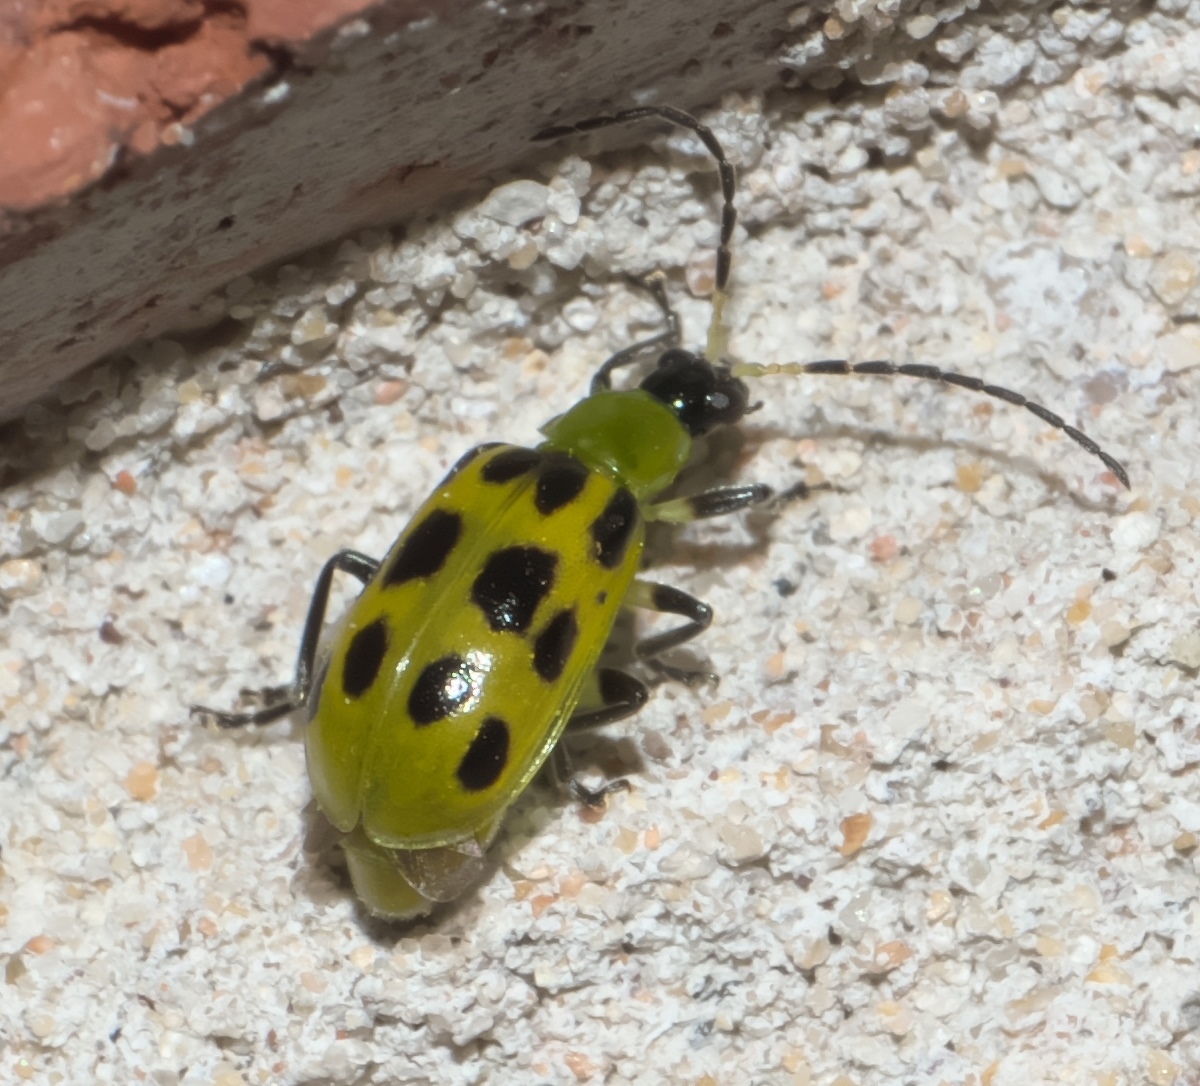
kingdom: Animalia
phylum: Arthropoda
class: Insecta
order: Coleoptera
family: Chrysomelidae
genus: Diabrotica
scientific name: Diabrotica undecimpunctata
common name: Spotted cucumber beetle
